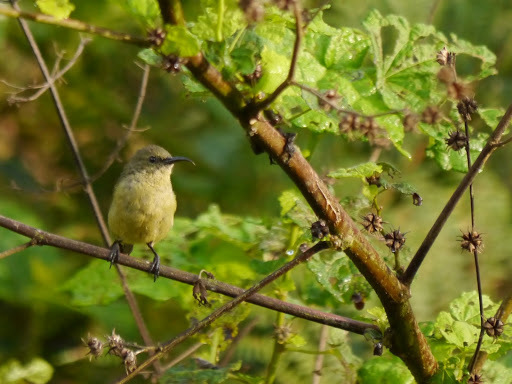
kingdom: Animalia
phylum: Chordata
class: Aves
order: Passeriformes
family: Nectariniidae
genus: Cinnyris
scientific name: Cinnyris minullus
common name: Tiny sunbird
